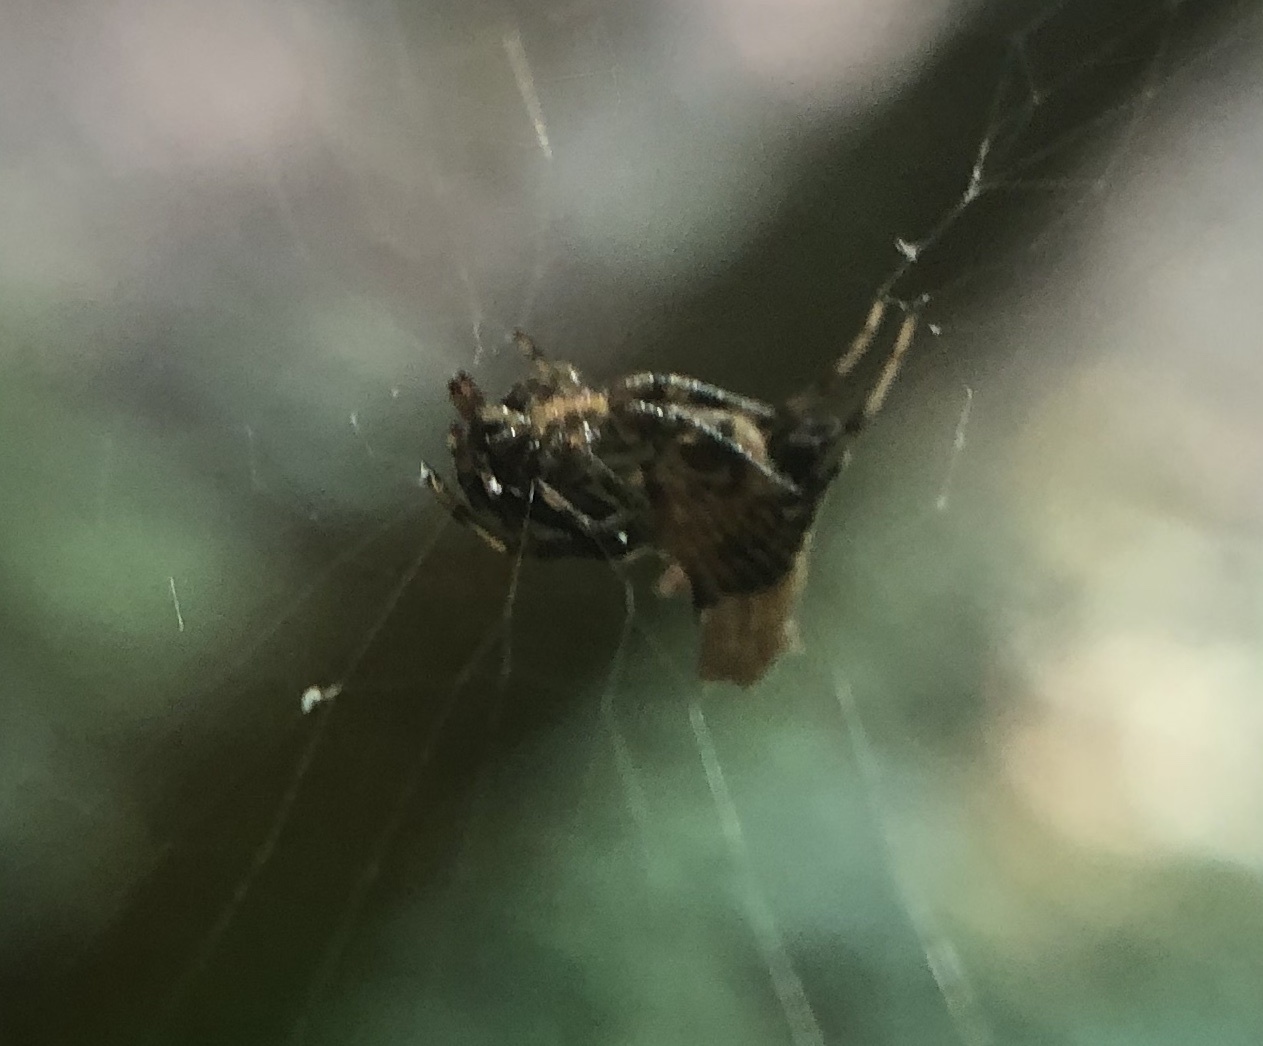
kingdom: Animalia
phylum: Arthropoda
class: Arachnida
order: Araneae
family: Araneidae
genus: Micrathena
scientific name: Micrathena gracilis
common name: Orb weavers
